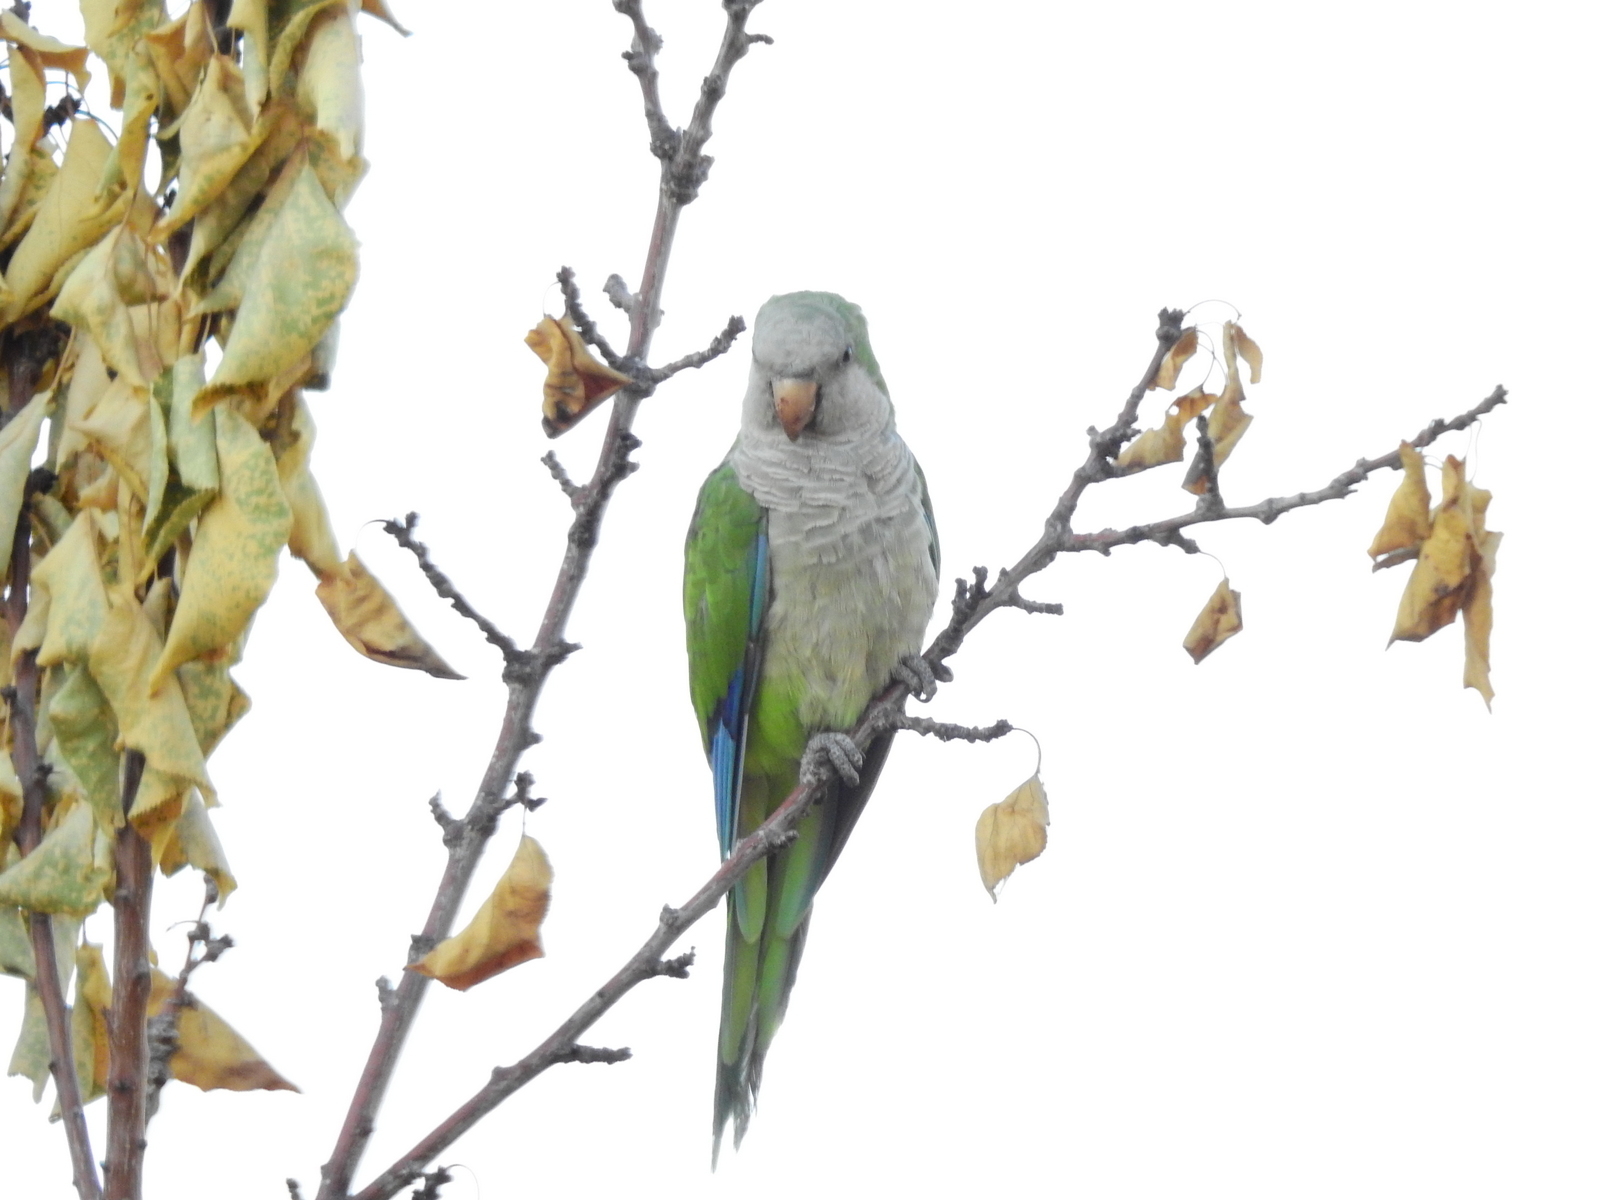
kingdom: Animalia
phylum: Chordata
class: Aves
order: Psittaciformes
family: Psittacidae
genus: Myiopsitta
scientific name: Myiopsitta monachus
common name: Monk parakeet
